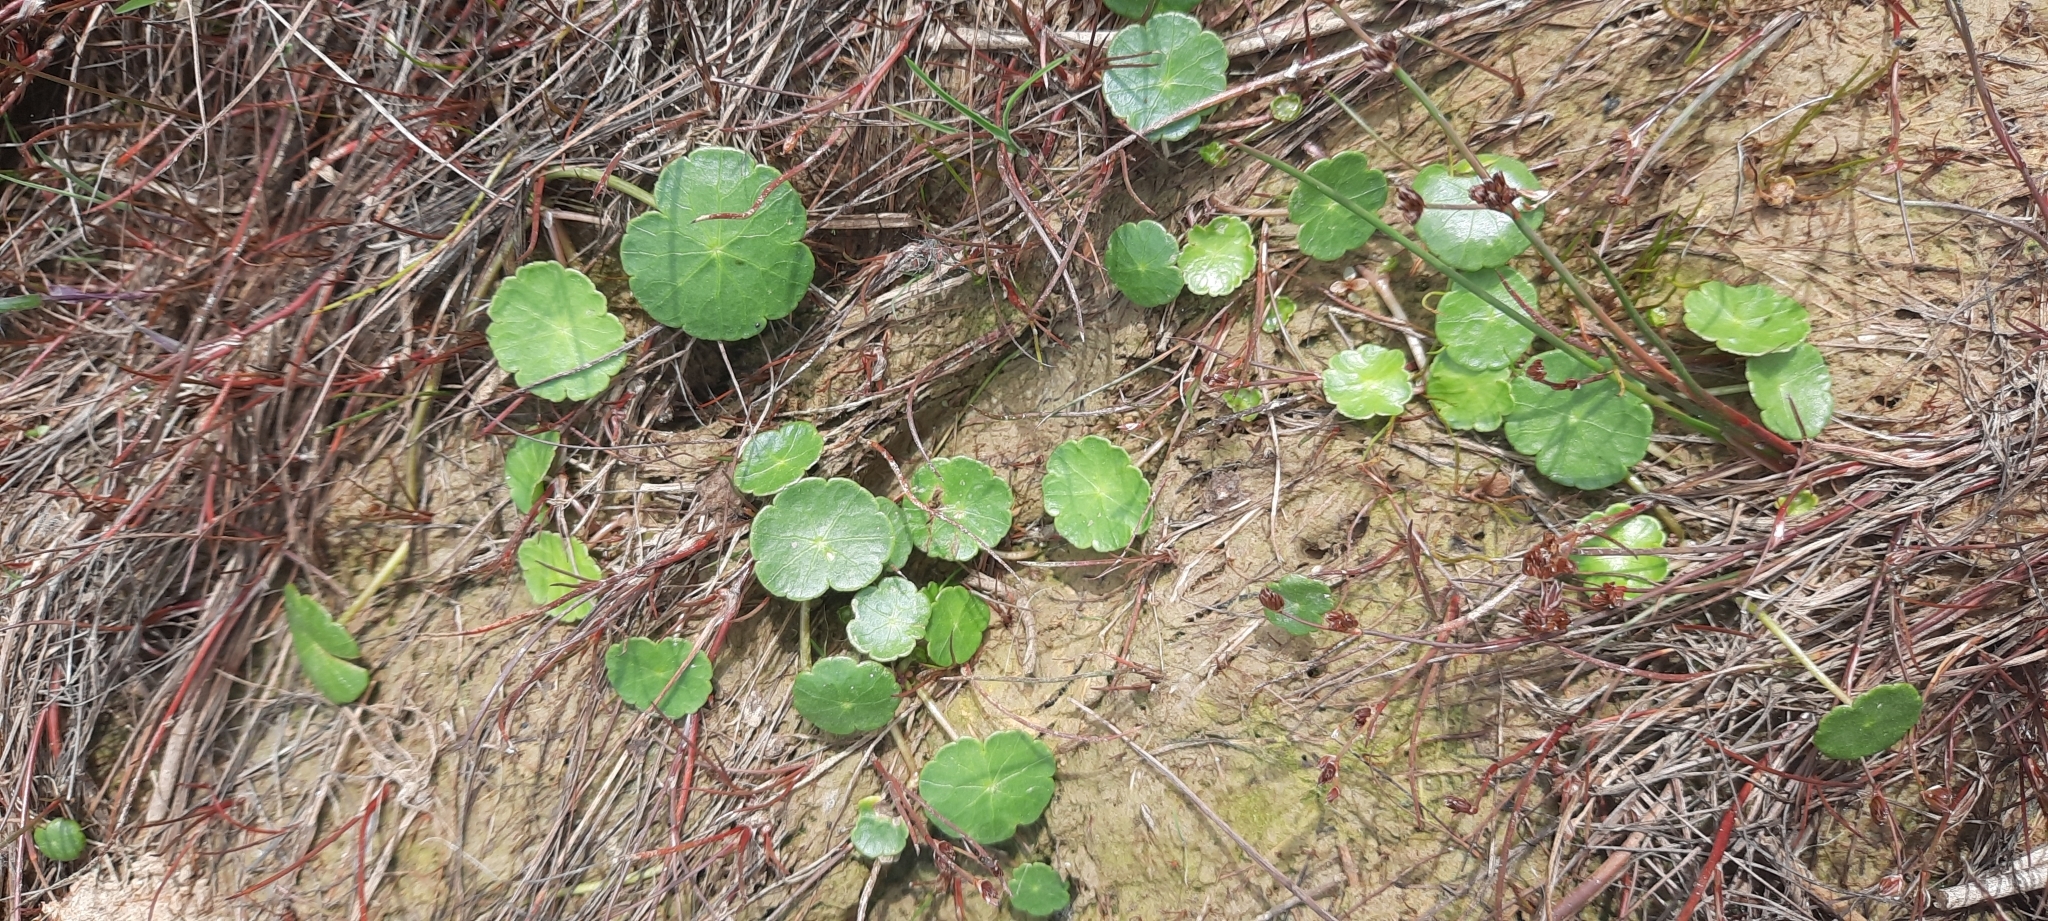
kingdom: Plantae
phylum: Tracheophyta
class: Magnoliopsida
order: Apiales
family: Araliaceae
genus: Hydrocotyle
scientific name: Hydrocotyle vulgaris
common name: Marsh pennywort
